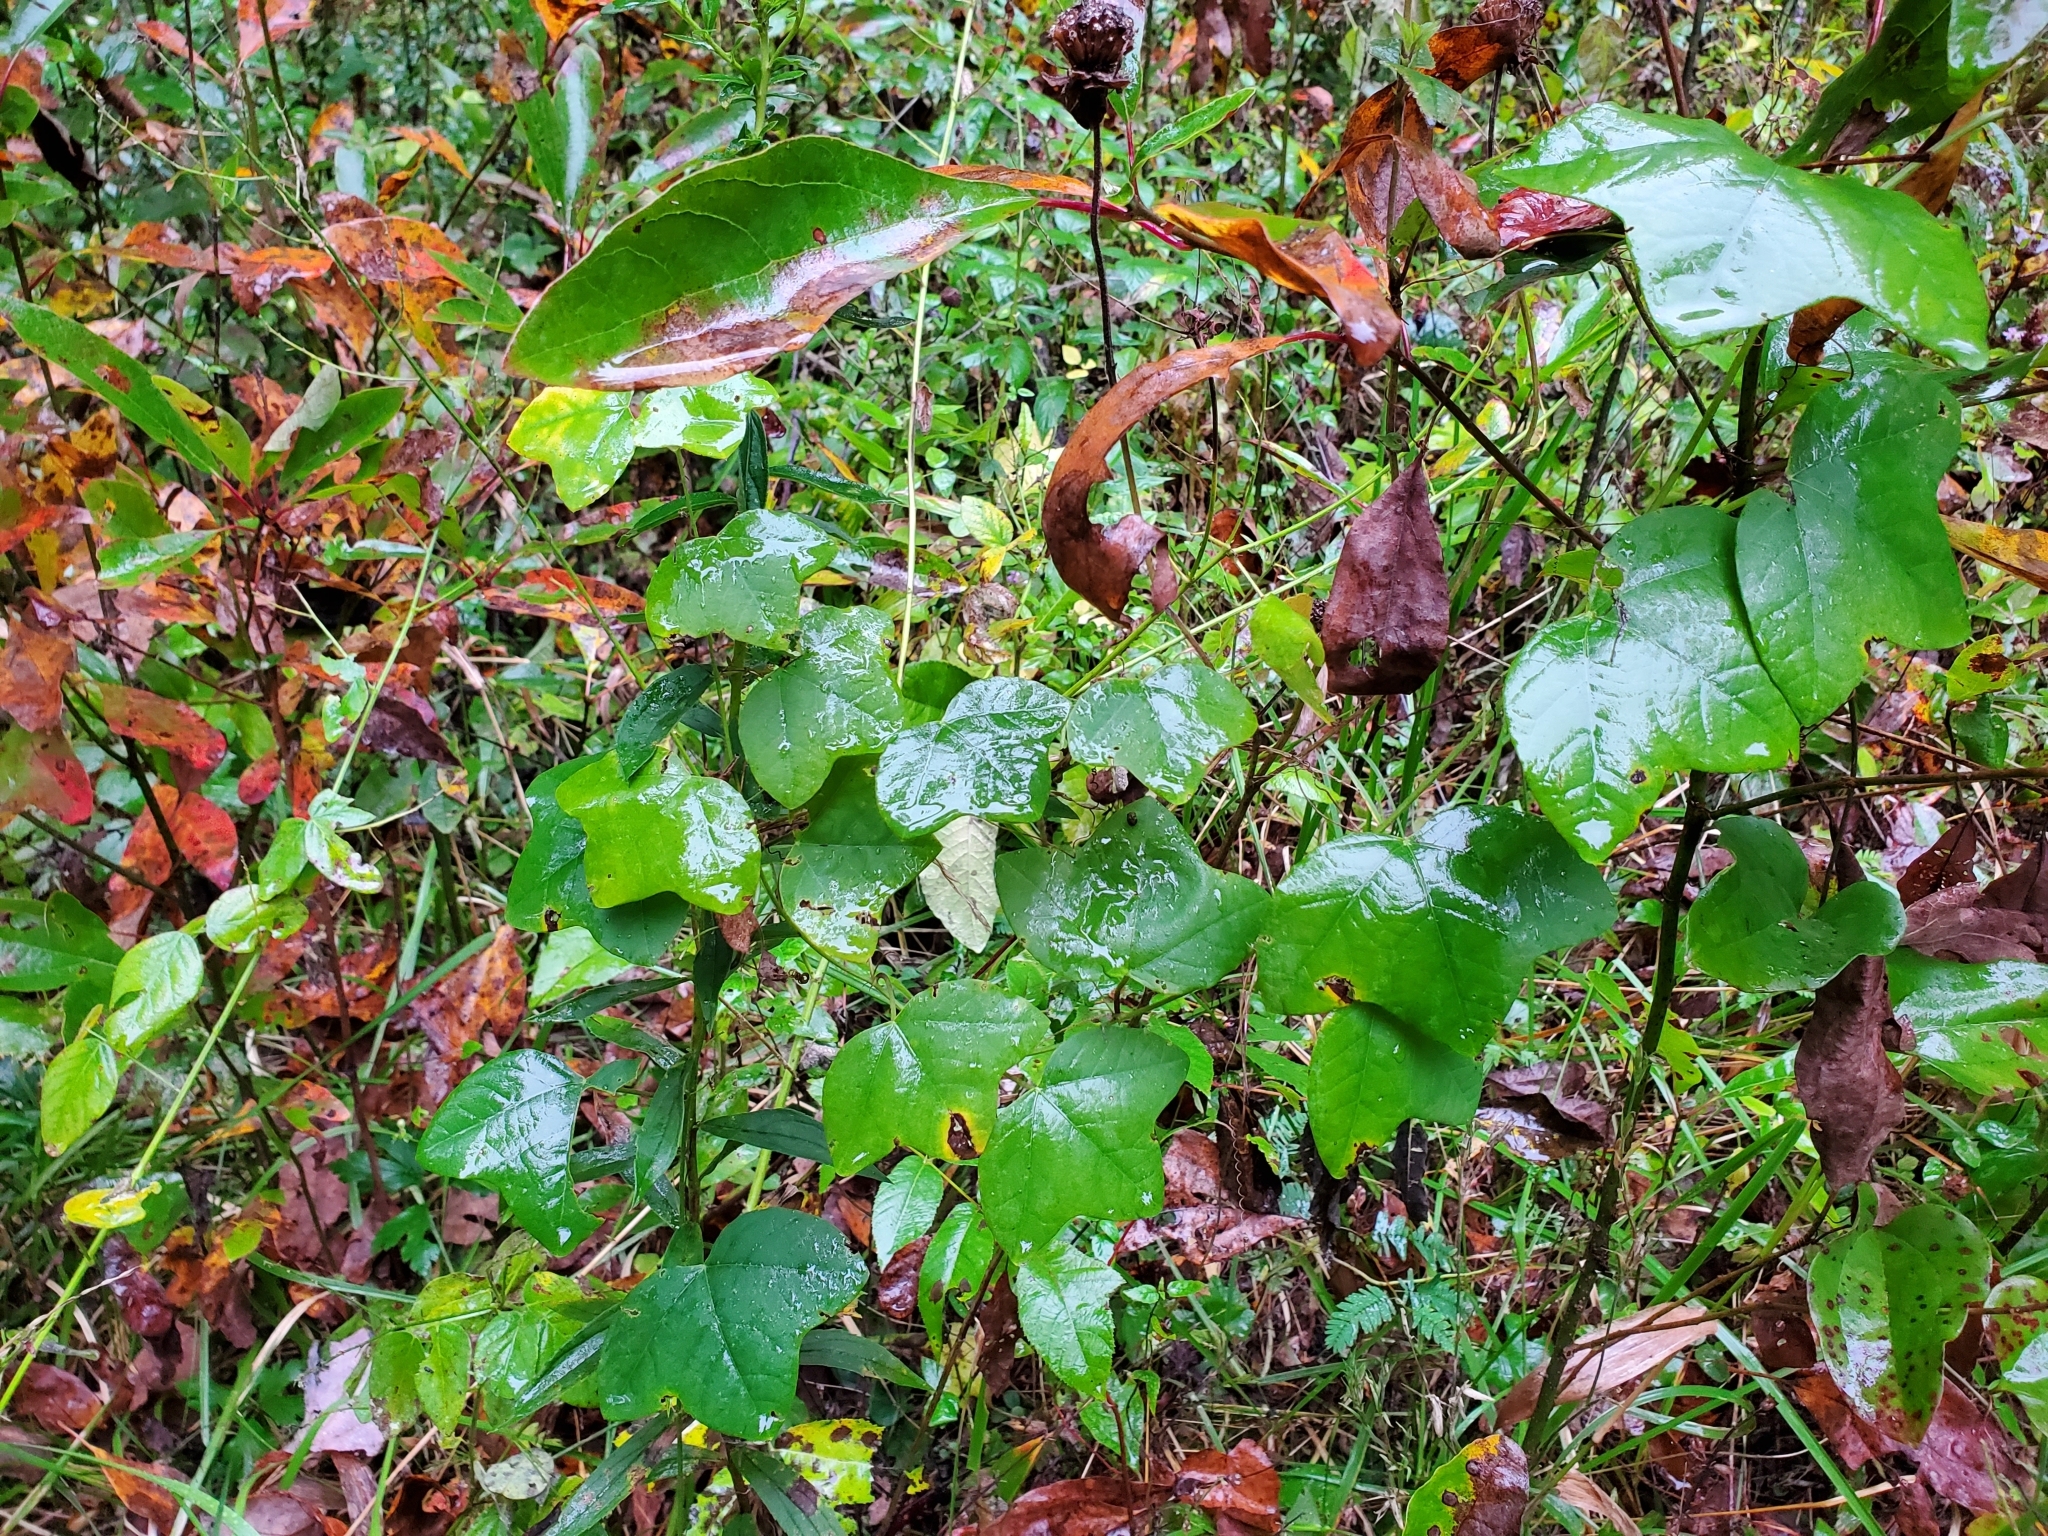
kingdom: Plantae
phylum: Tracheophyta
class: Magnoliopsida
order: Malpighiales
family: Passifloraceae
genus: Passiflora
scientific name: Passiflora lutea
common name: Yellow passionflower
